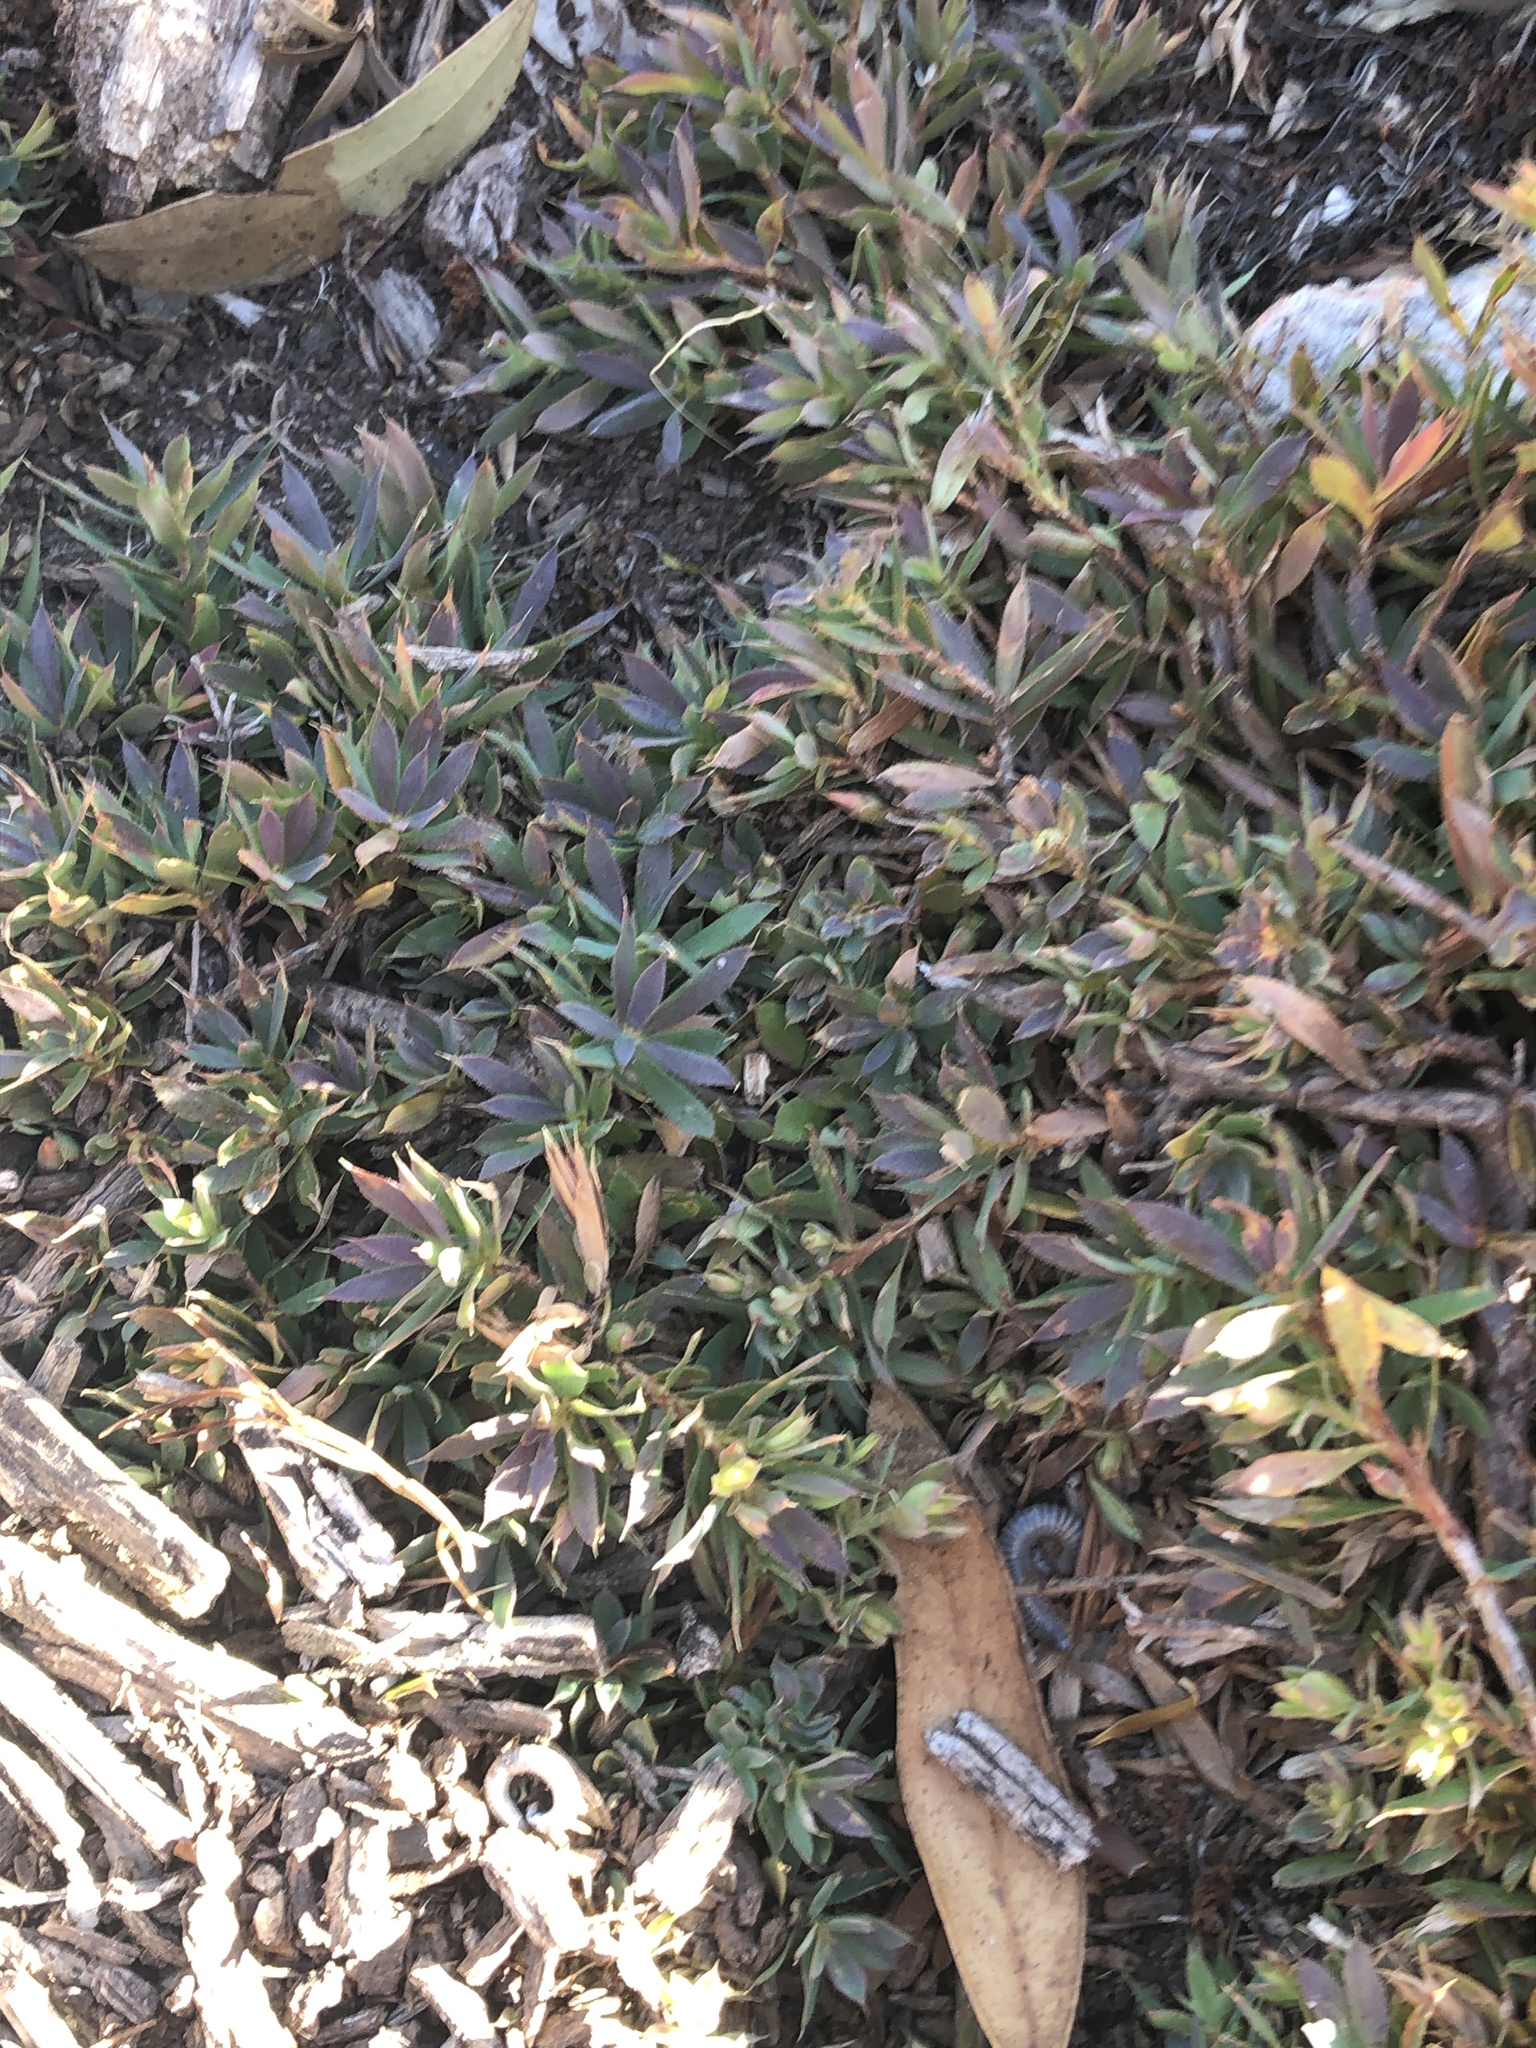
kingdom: Plantae
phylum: Tracheophyta
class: Magnoliopsida
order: Ericales
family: Ericaceae
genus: Styphelia
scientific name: Styphelia humifusa
